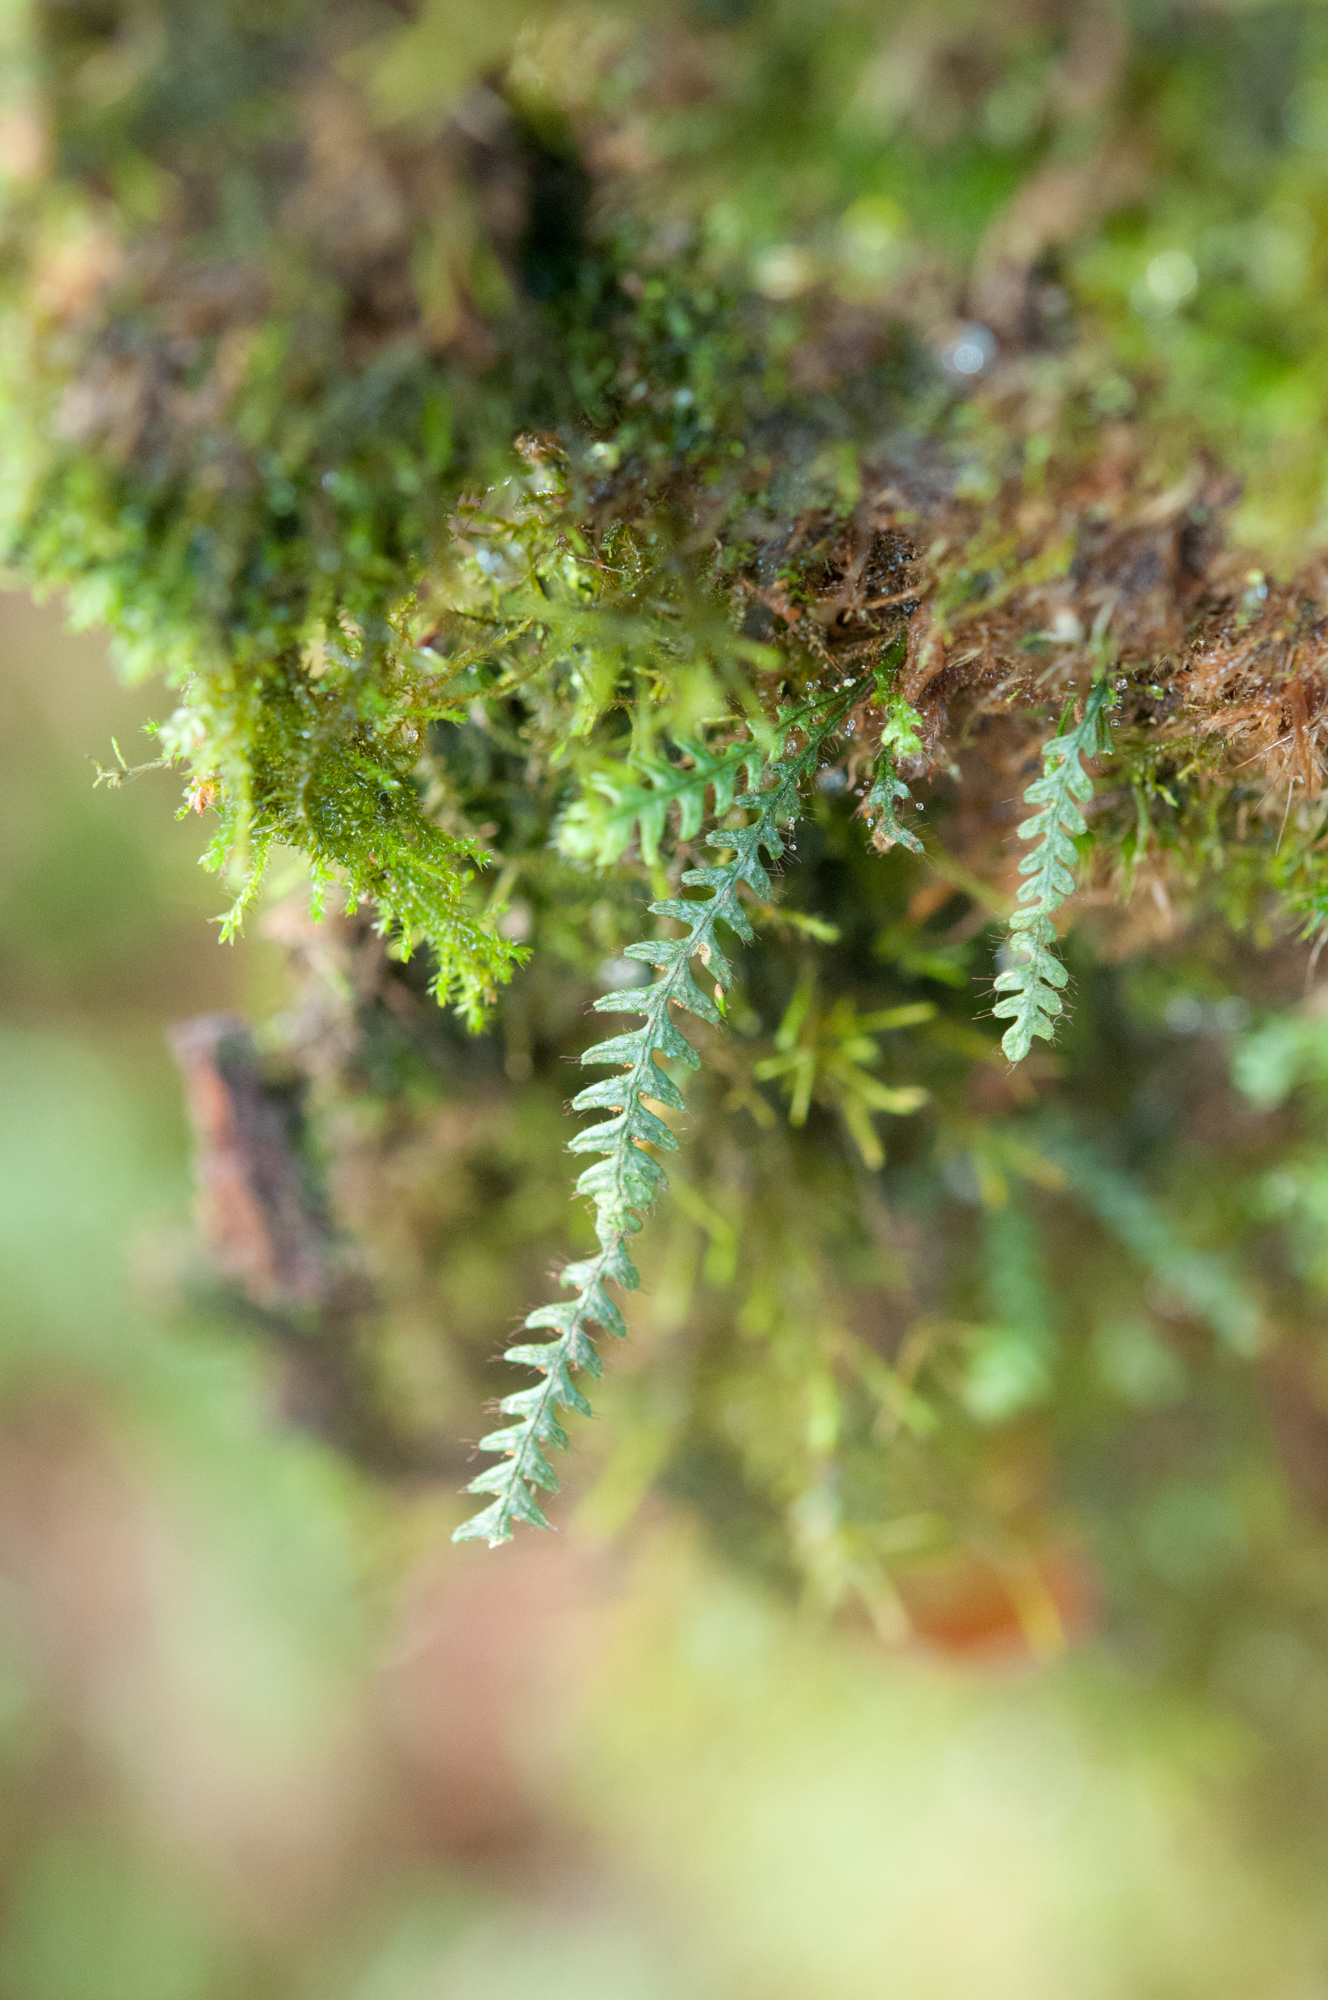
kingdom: Plantae
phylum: Tracheophyta
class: Polypodiopsida
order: Polypodiales
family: Polypodiaceae
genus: Micropolypodium
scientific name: Micropolypodium okuboi
